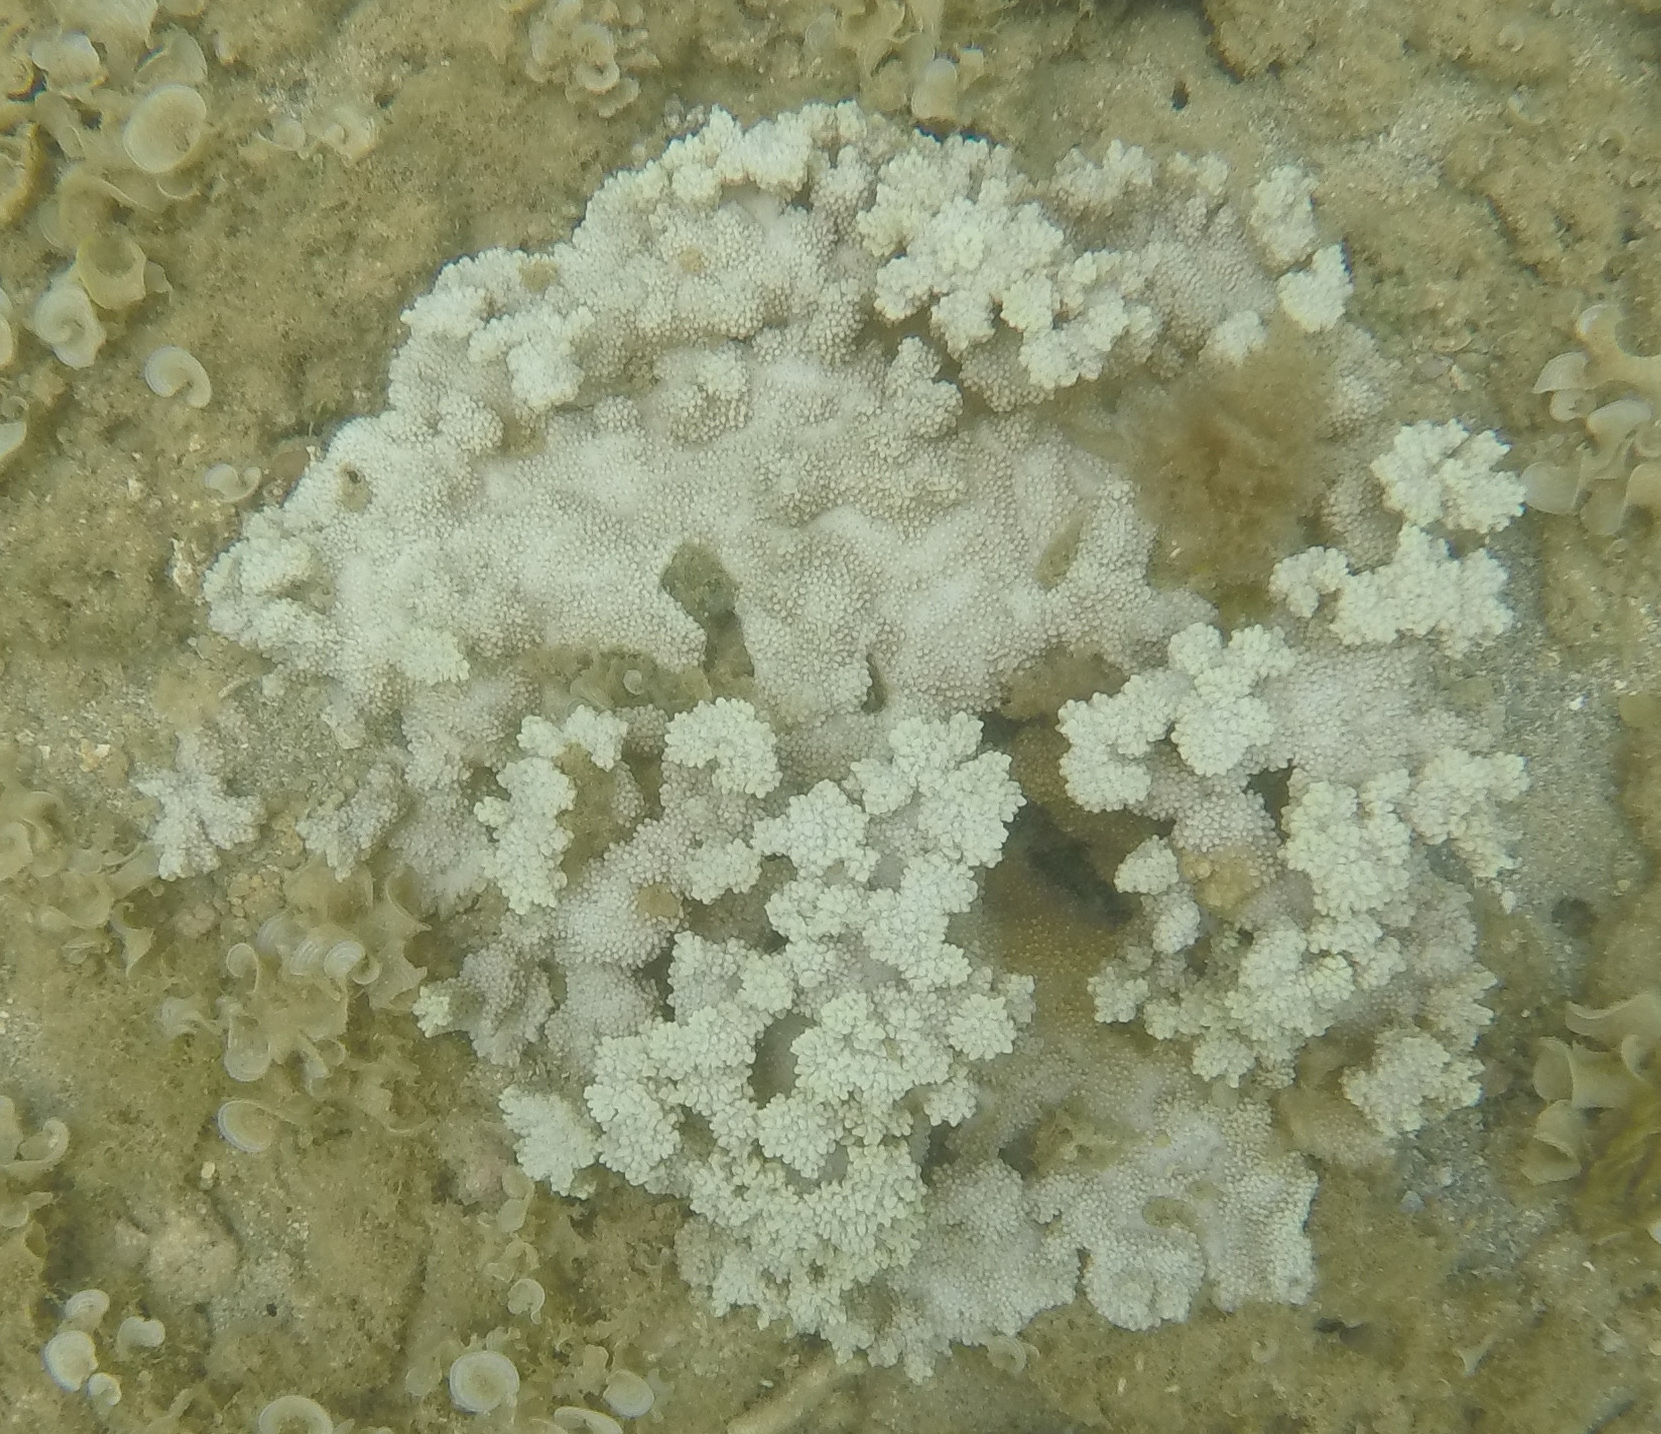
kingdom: Animalia
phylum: Cnidaria
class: Anthozoa
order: Scleractinia
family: Acroporidae
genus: Montipora
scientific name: Montipora capitata
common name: Pore coral
